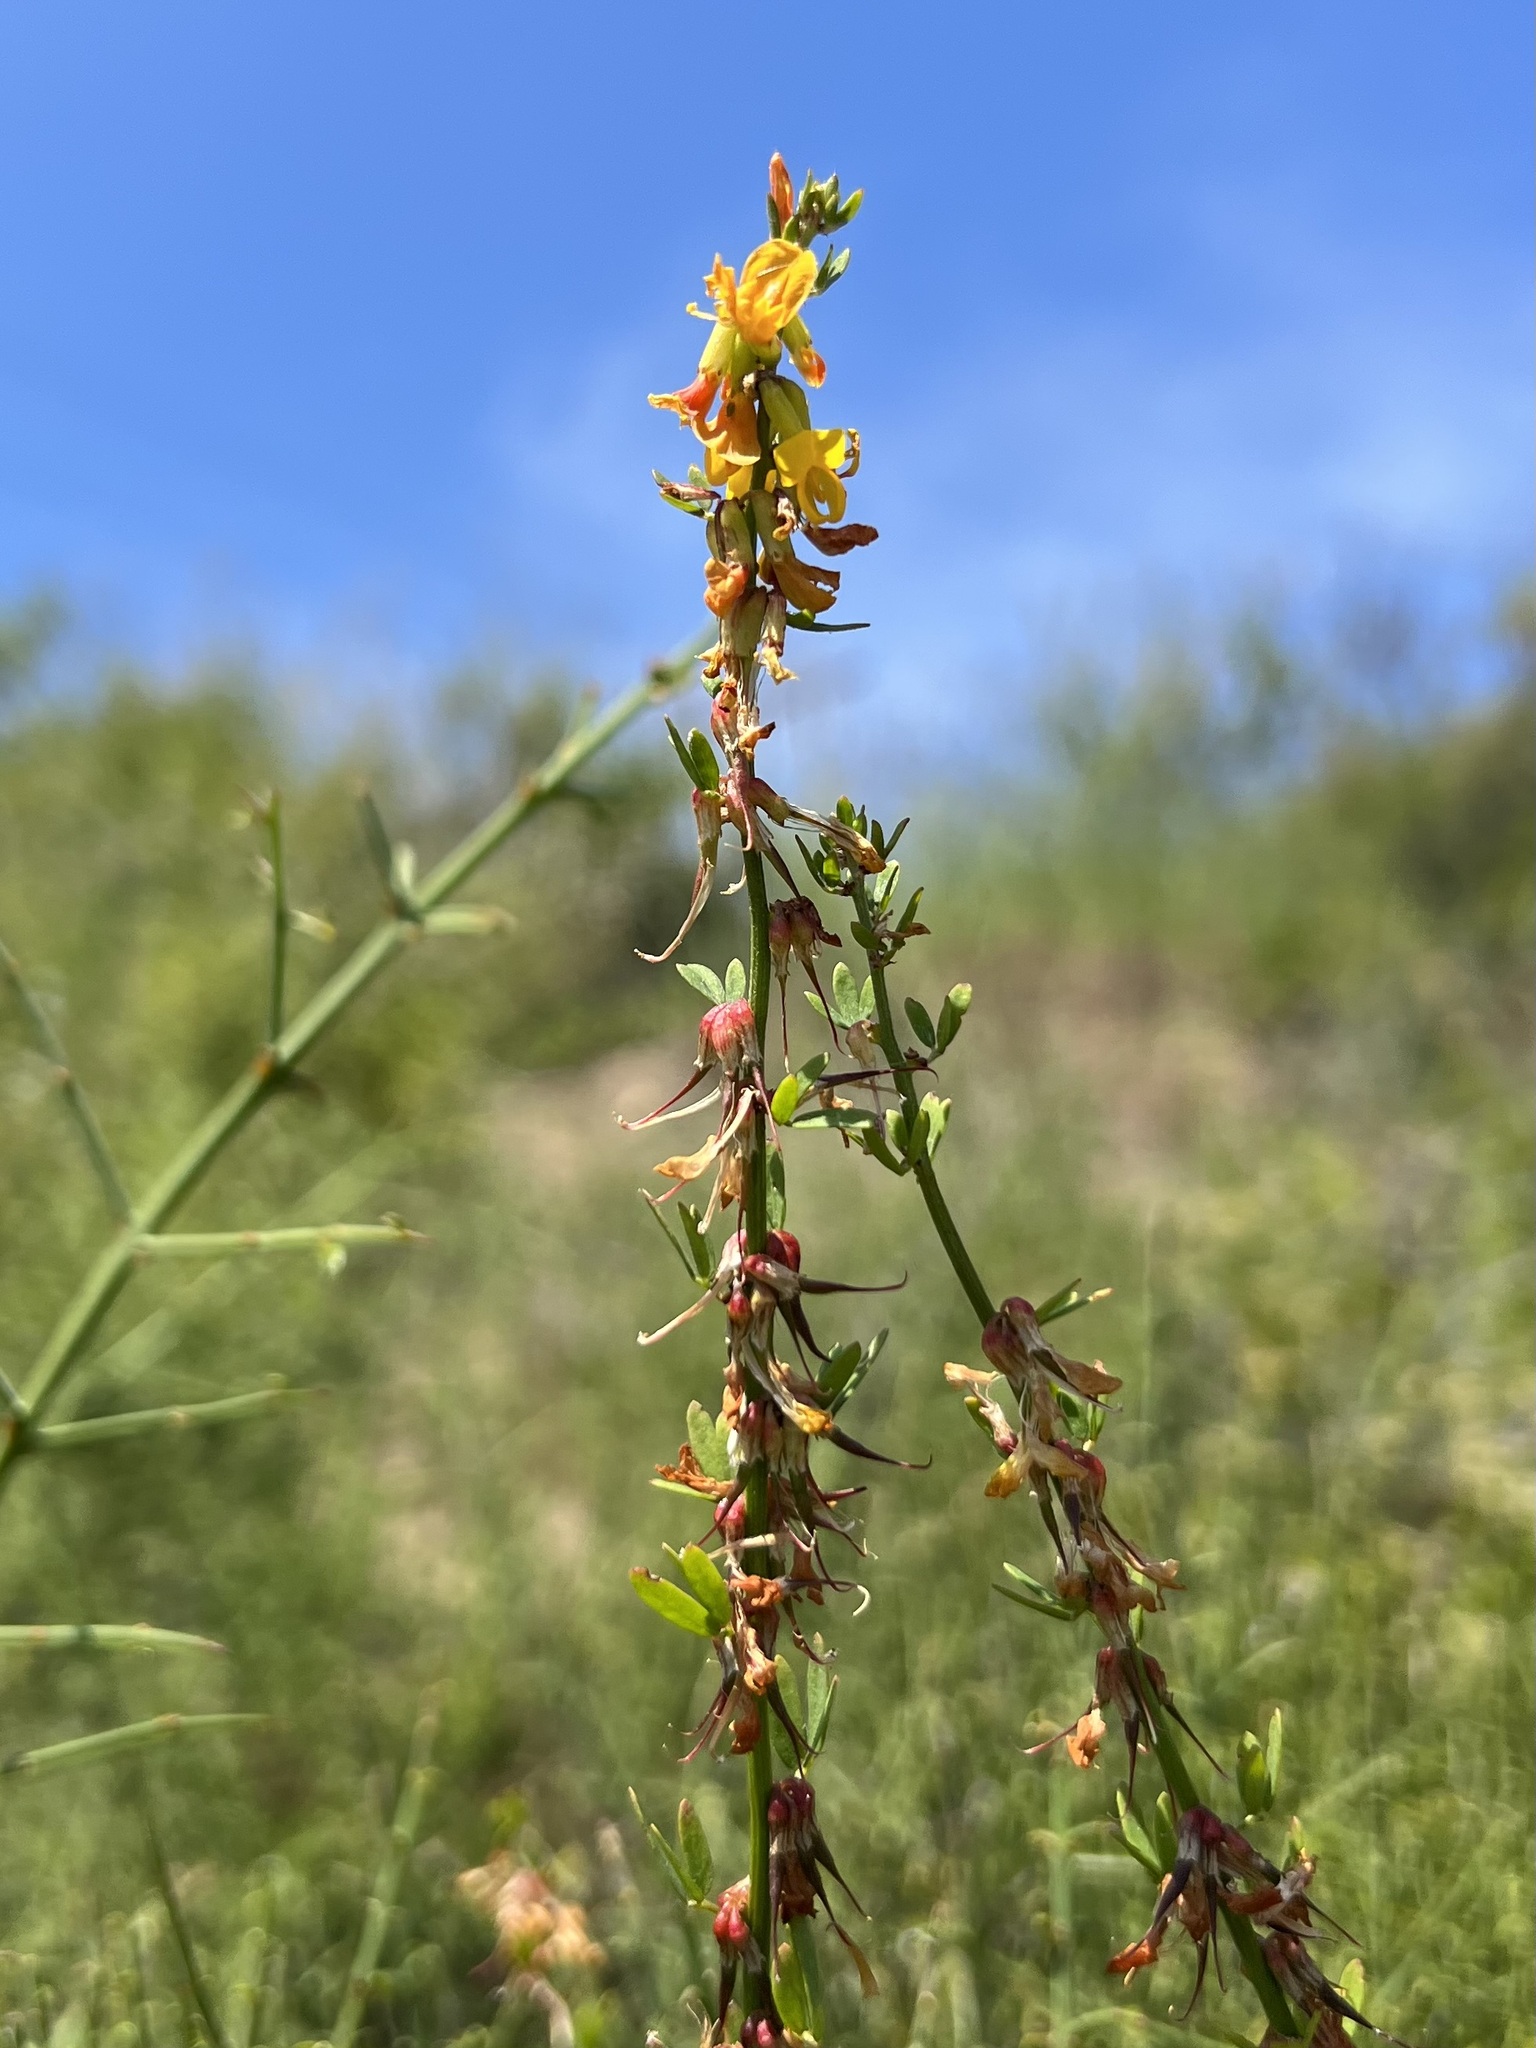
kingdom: Plantae
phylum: Tracheophyta
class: Magnoliopsida
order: Fabales
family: Fabaceae
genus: Acmispon
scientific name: Acmispon glaber
